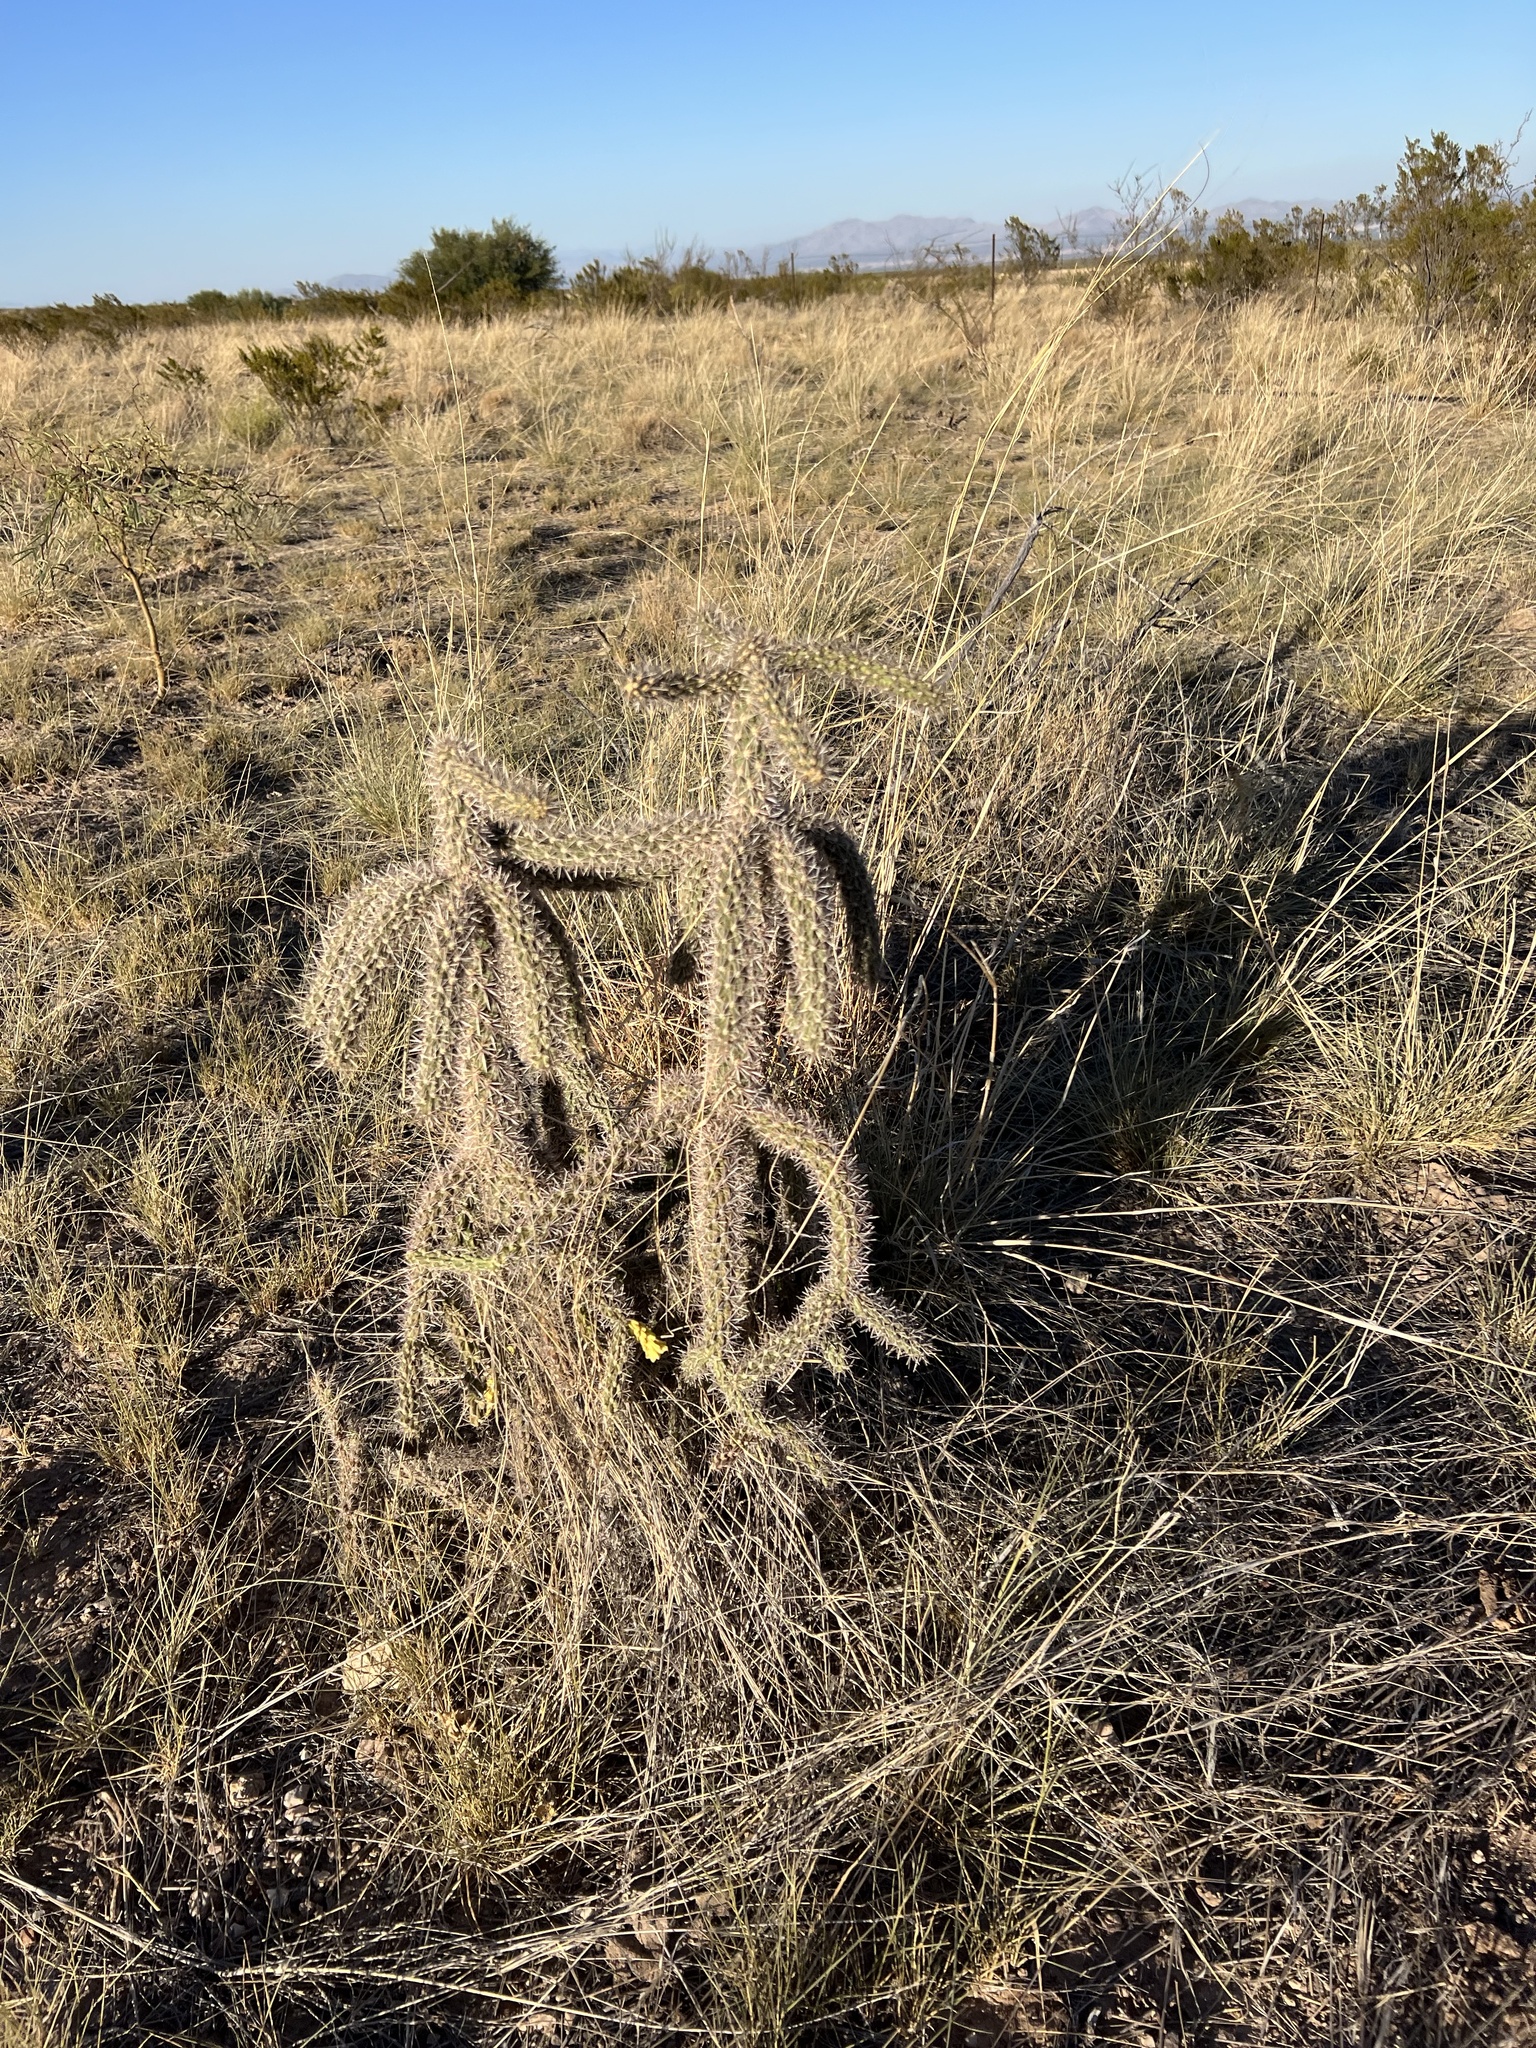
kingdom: Plantae
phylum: Tracheophyta
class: Magnoliopsida
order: Caryophyllales
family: Cactaceae
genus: Cylindropuntia
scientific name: Cylindropuntia imbricata
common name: Candelabrum cactus
